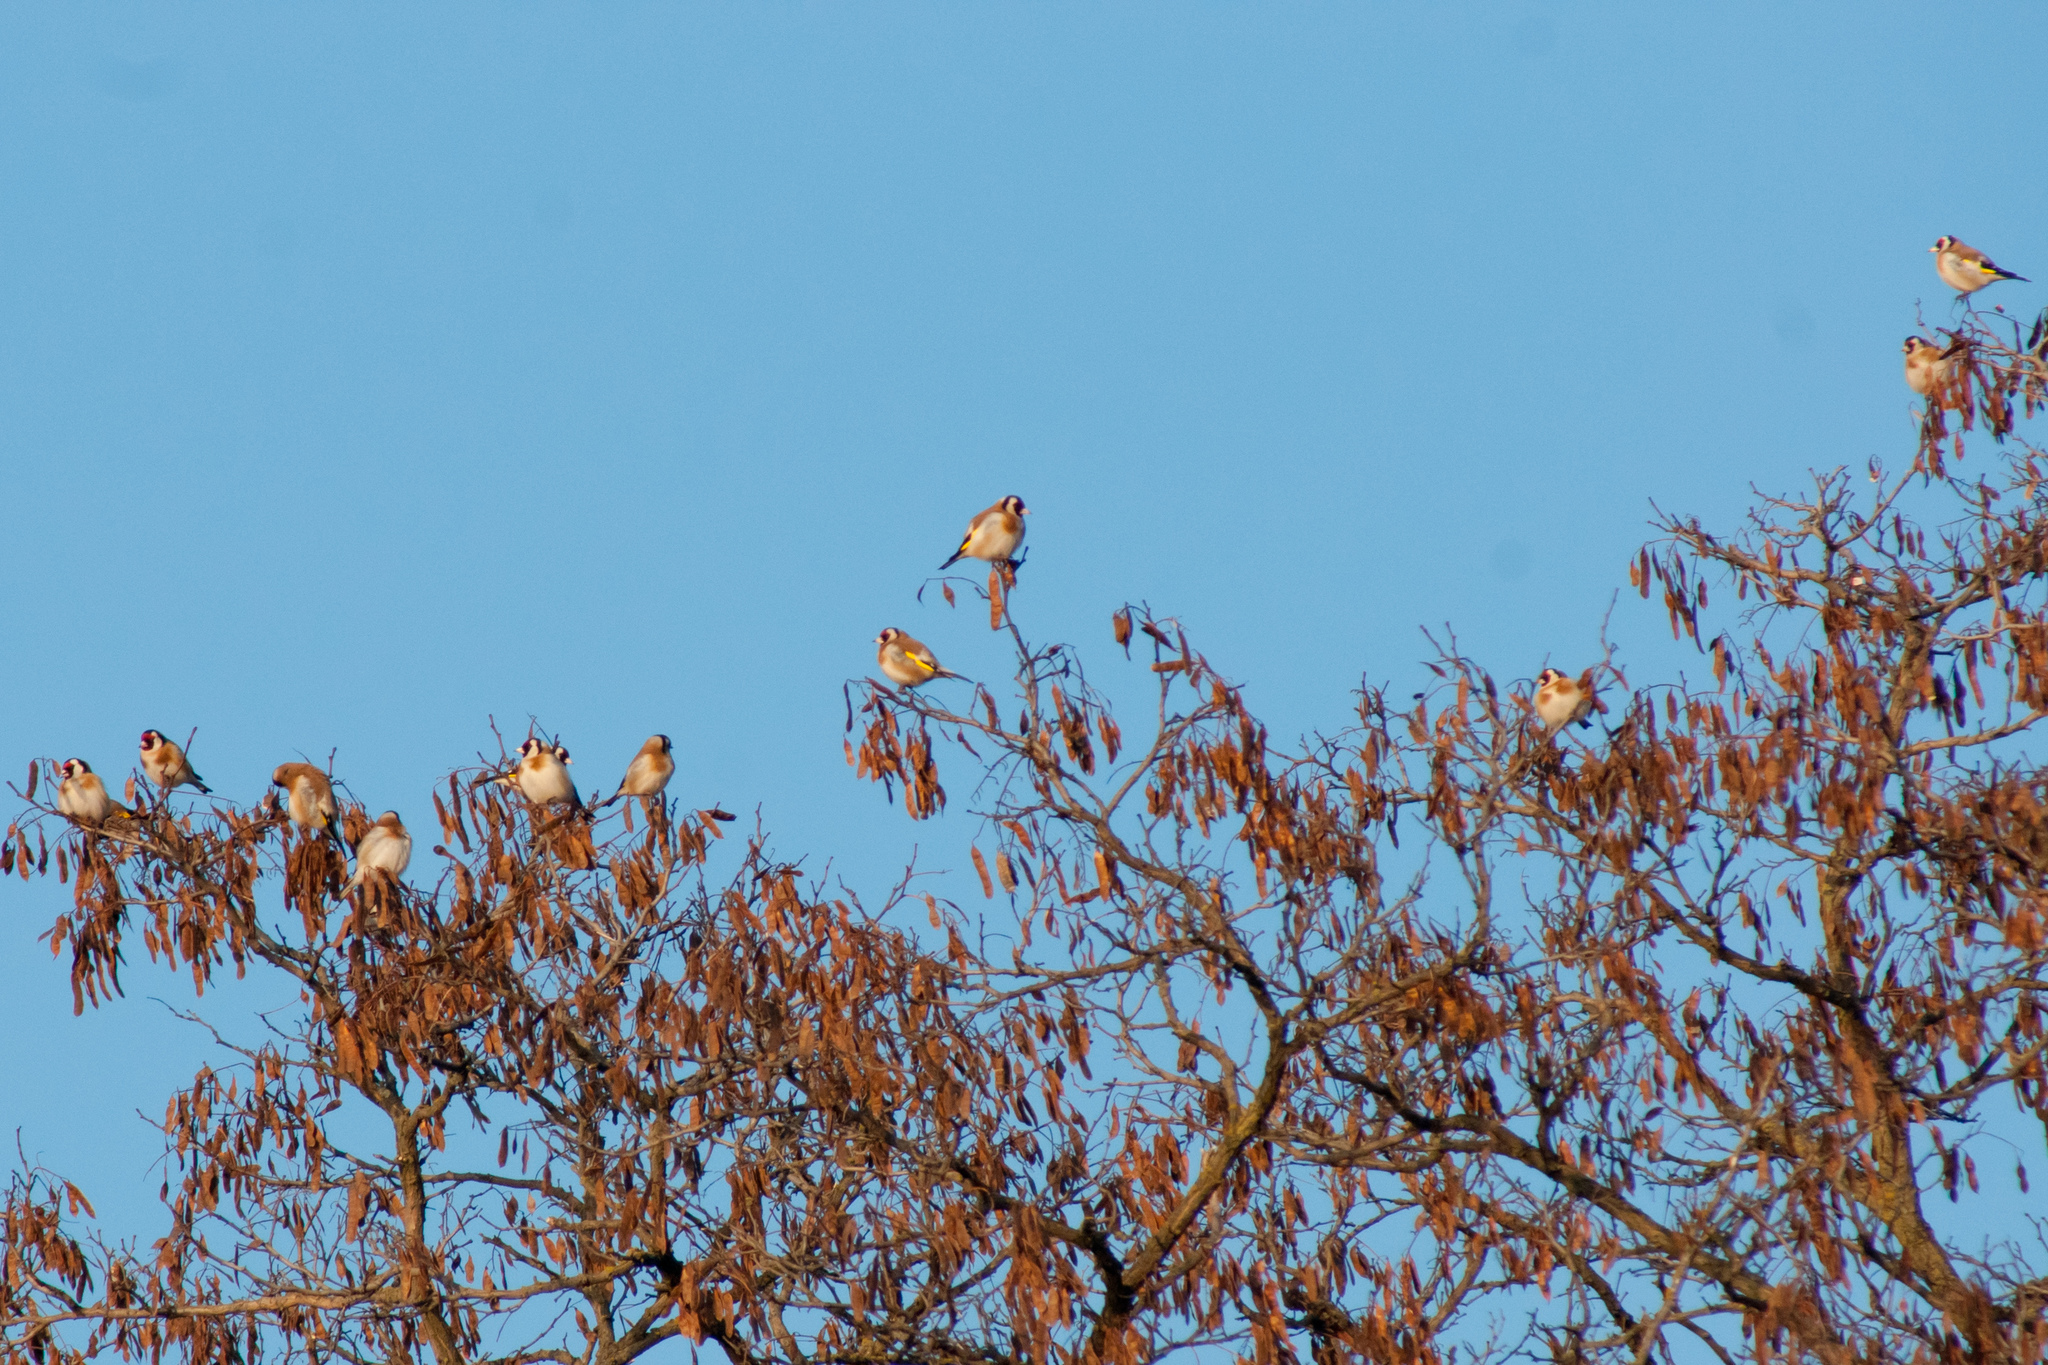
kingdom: Animalia
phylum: Chordata
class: Aves
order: Passeriformes
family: Fringillidae
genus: Carduelis
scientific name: Carduelis carduelis
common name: European goldfinch
